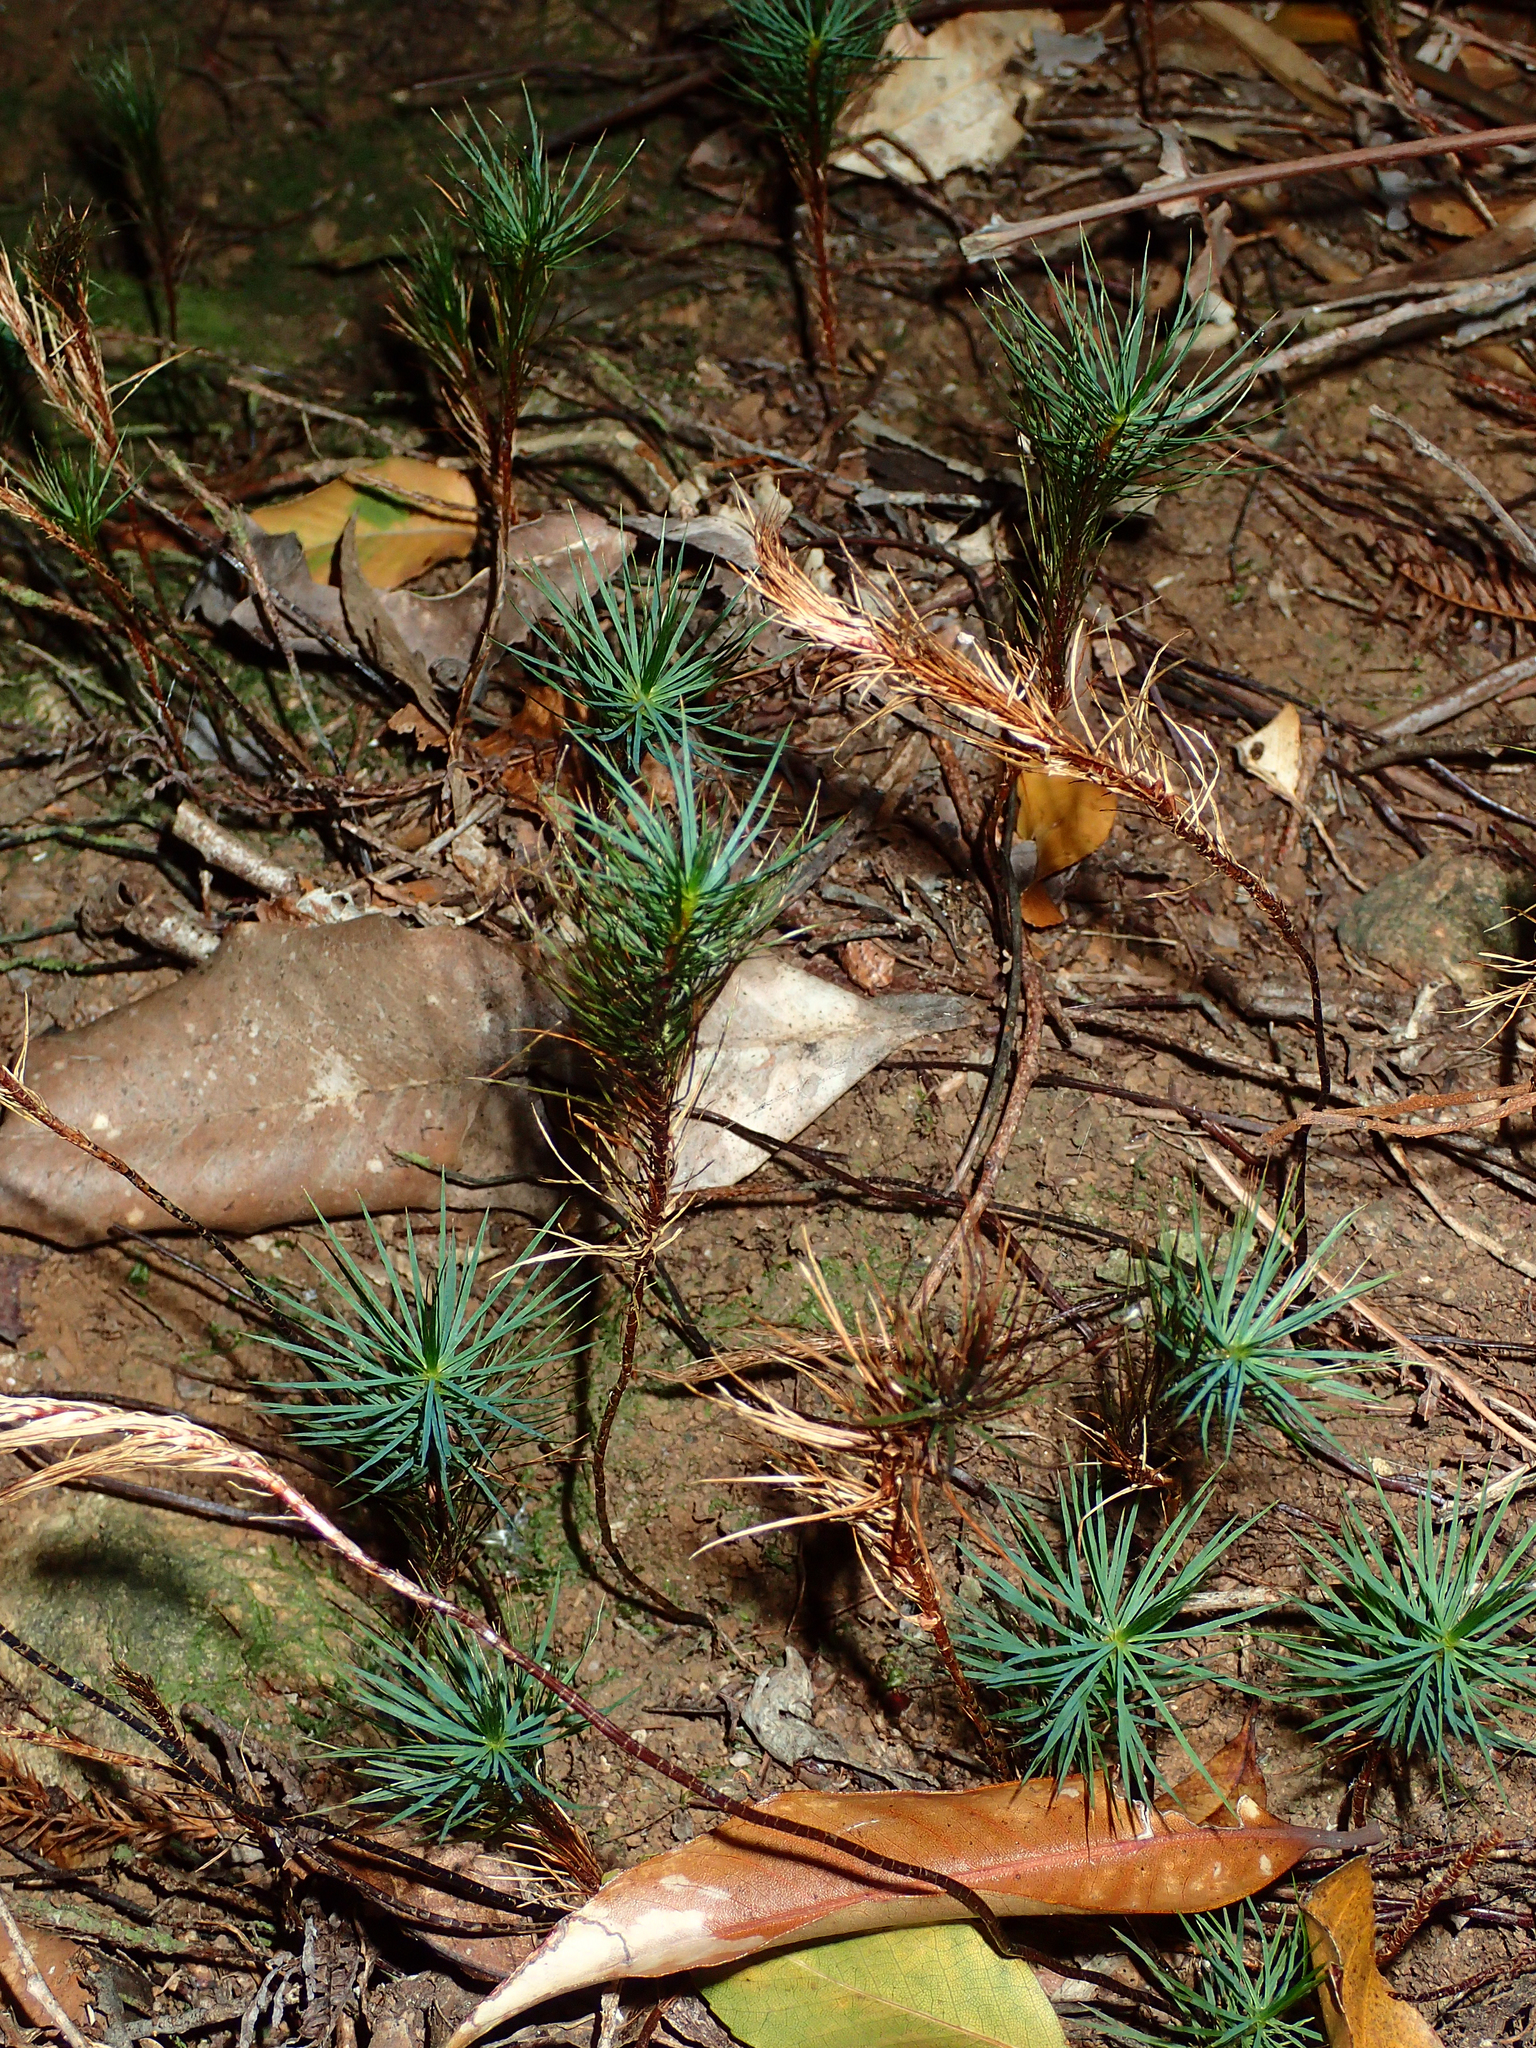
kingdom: Plantae
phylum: Bryophyta
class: Polytrichopsida
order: Polytrichales
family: Polytrichaceae
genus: Dawsonia
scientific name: Dawsonia superba
